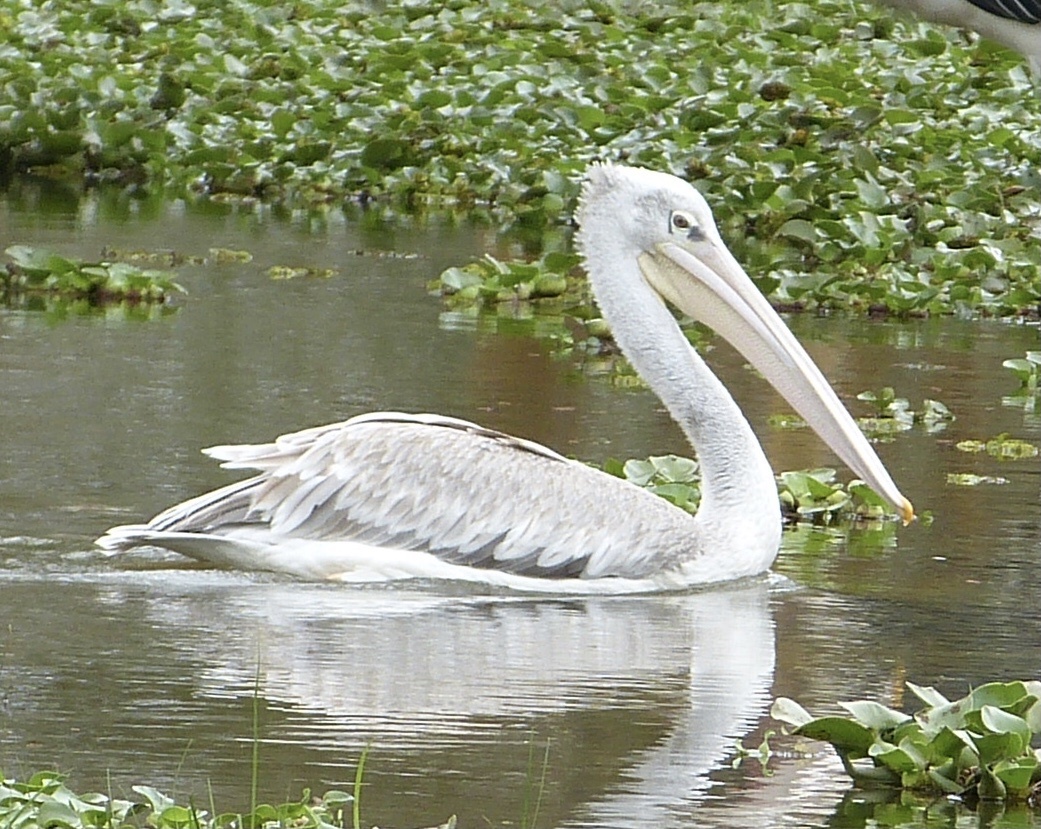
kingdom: Animalia
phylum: Chordata
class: Aves
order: Pelecaniformes
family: Pelecanidae
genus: Pelecanus
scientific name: Pelecanus rufescens
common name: Pink-backed pelican
